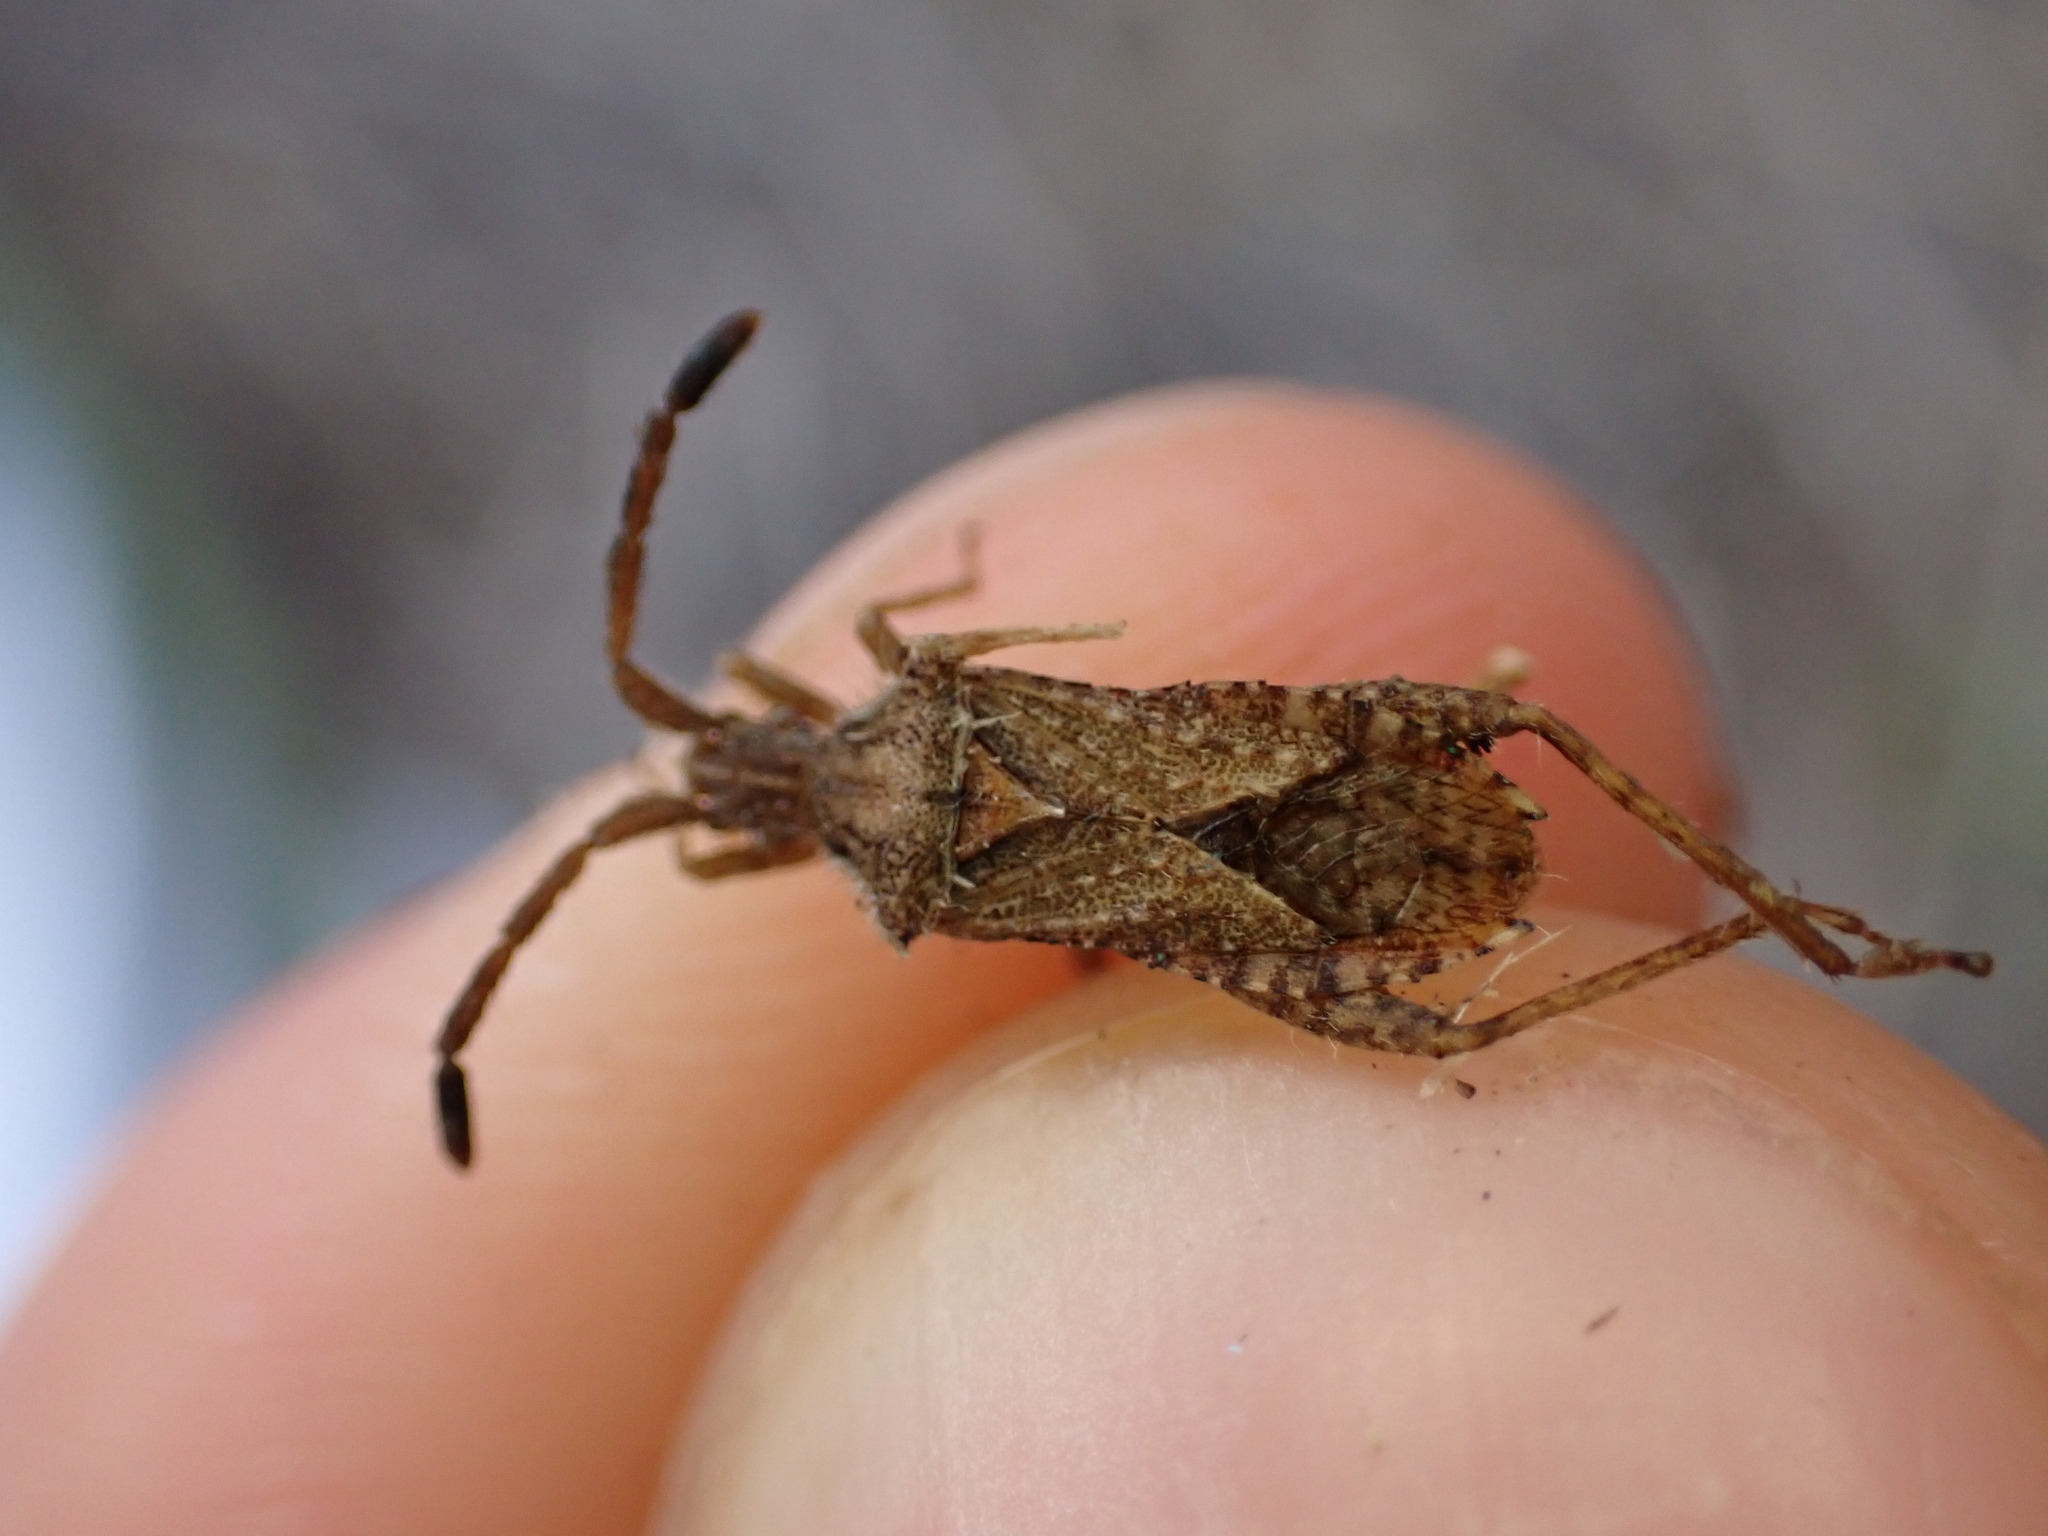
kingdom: Animalia
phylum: Arthropoda
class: Insecta
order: Hemiptera
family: Coreidae
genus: Coriomeris
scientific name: Coriomeris hirticornis
